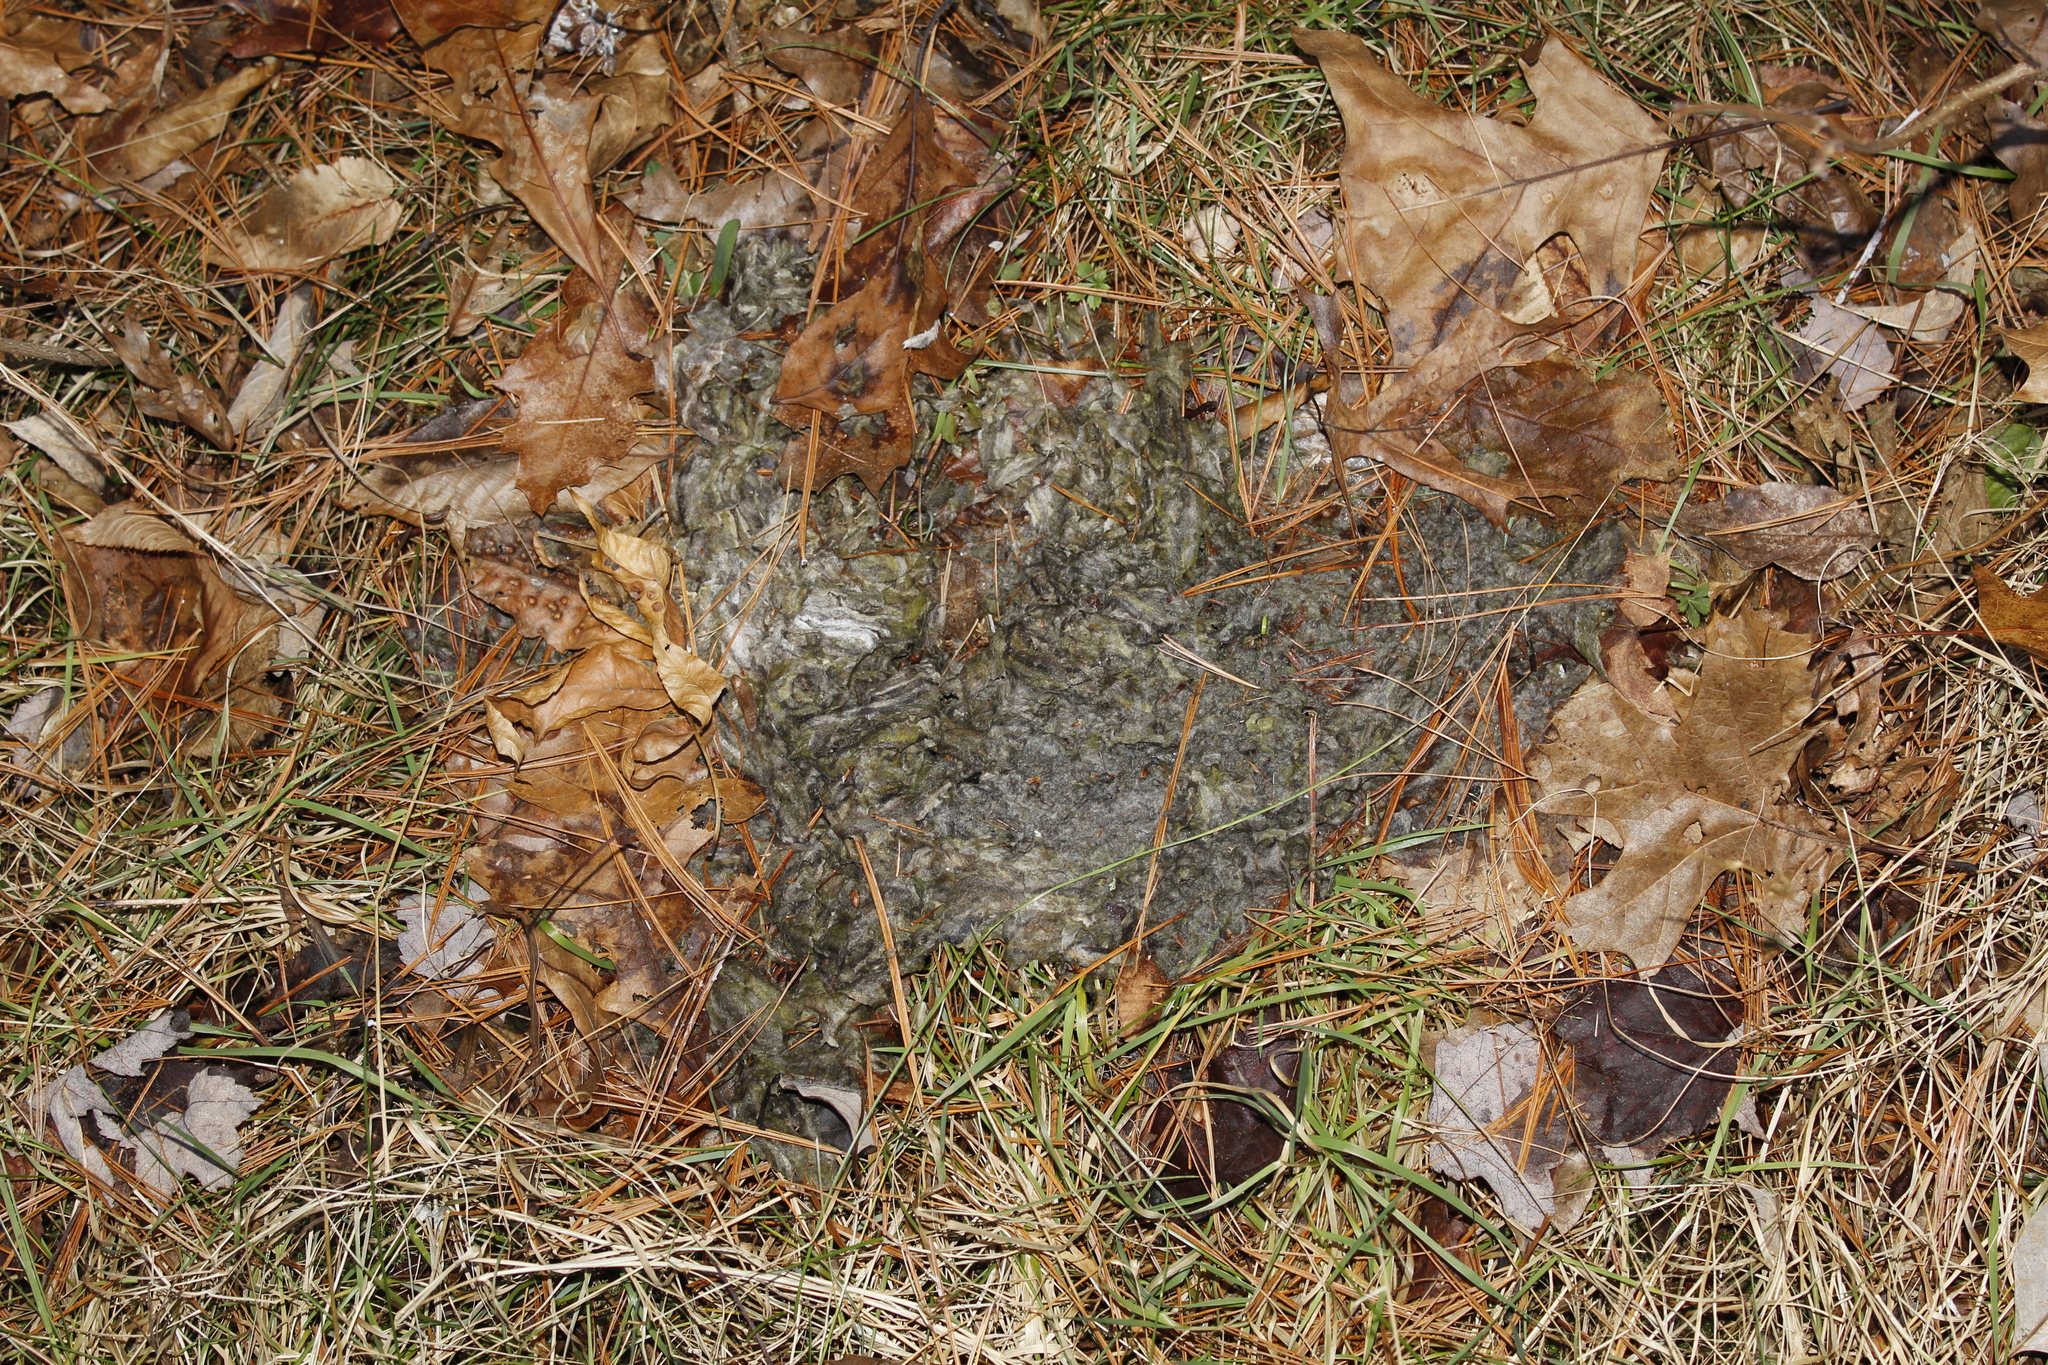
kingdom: Animalia
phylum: Arthropoda
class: Insecta
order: Hymenoptera
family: Vespidae
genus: Dolichovespula
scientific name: Dolichovespula maculata
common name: Bald-faced hornet
